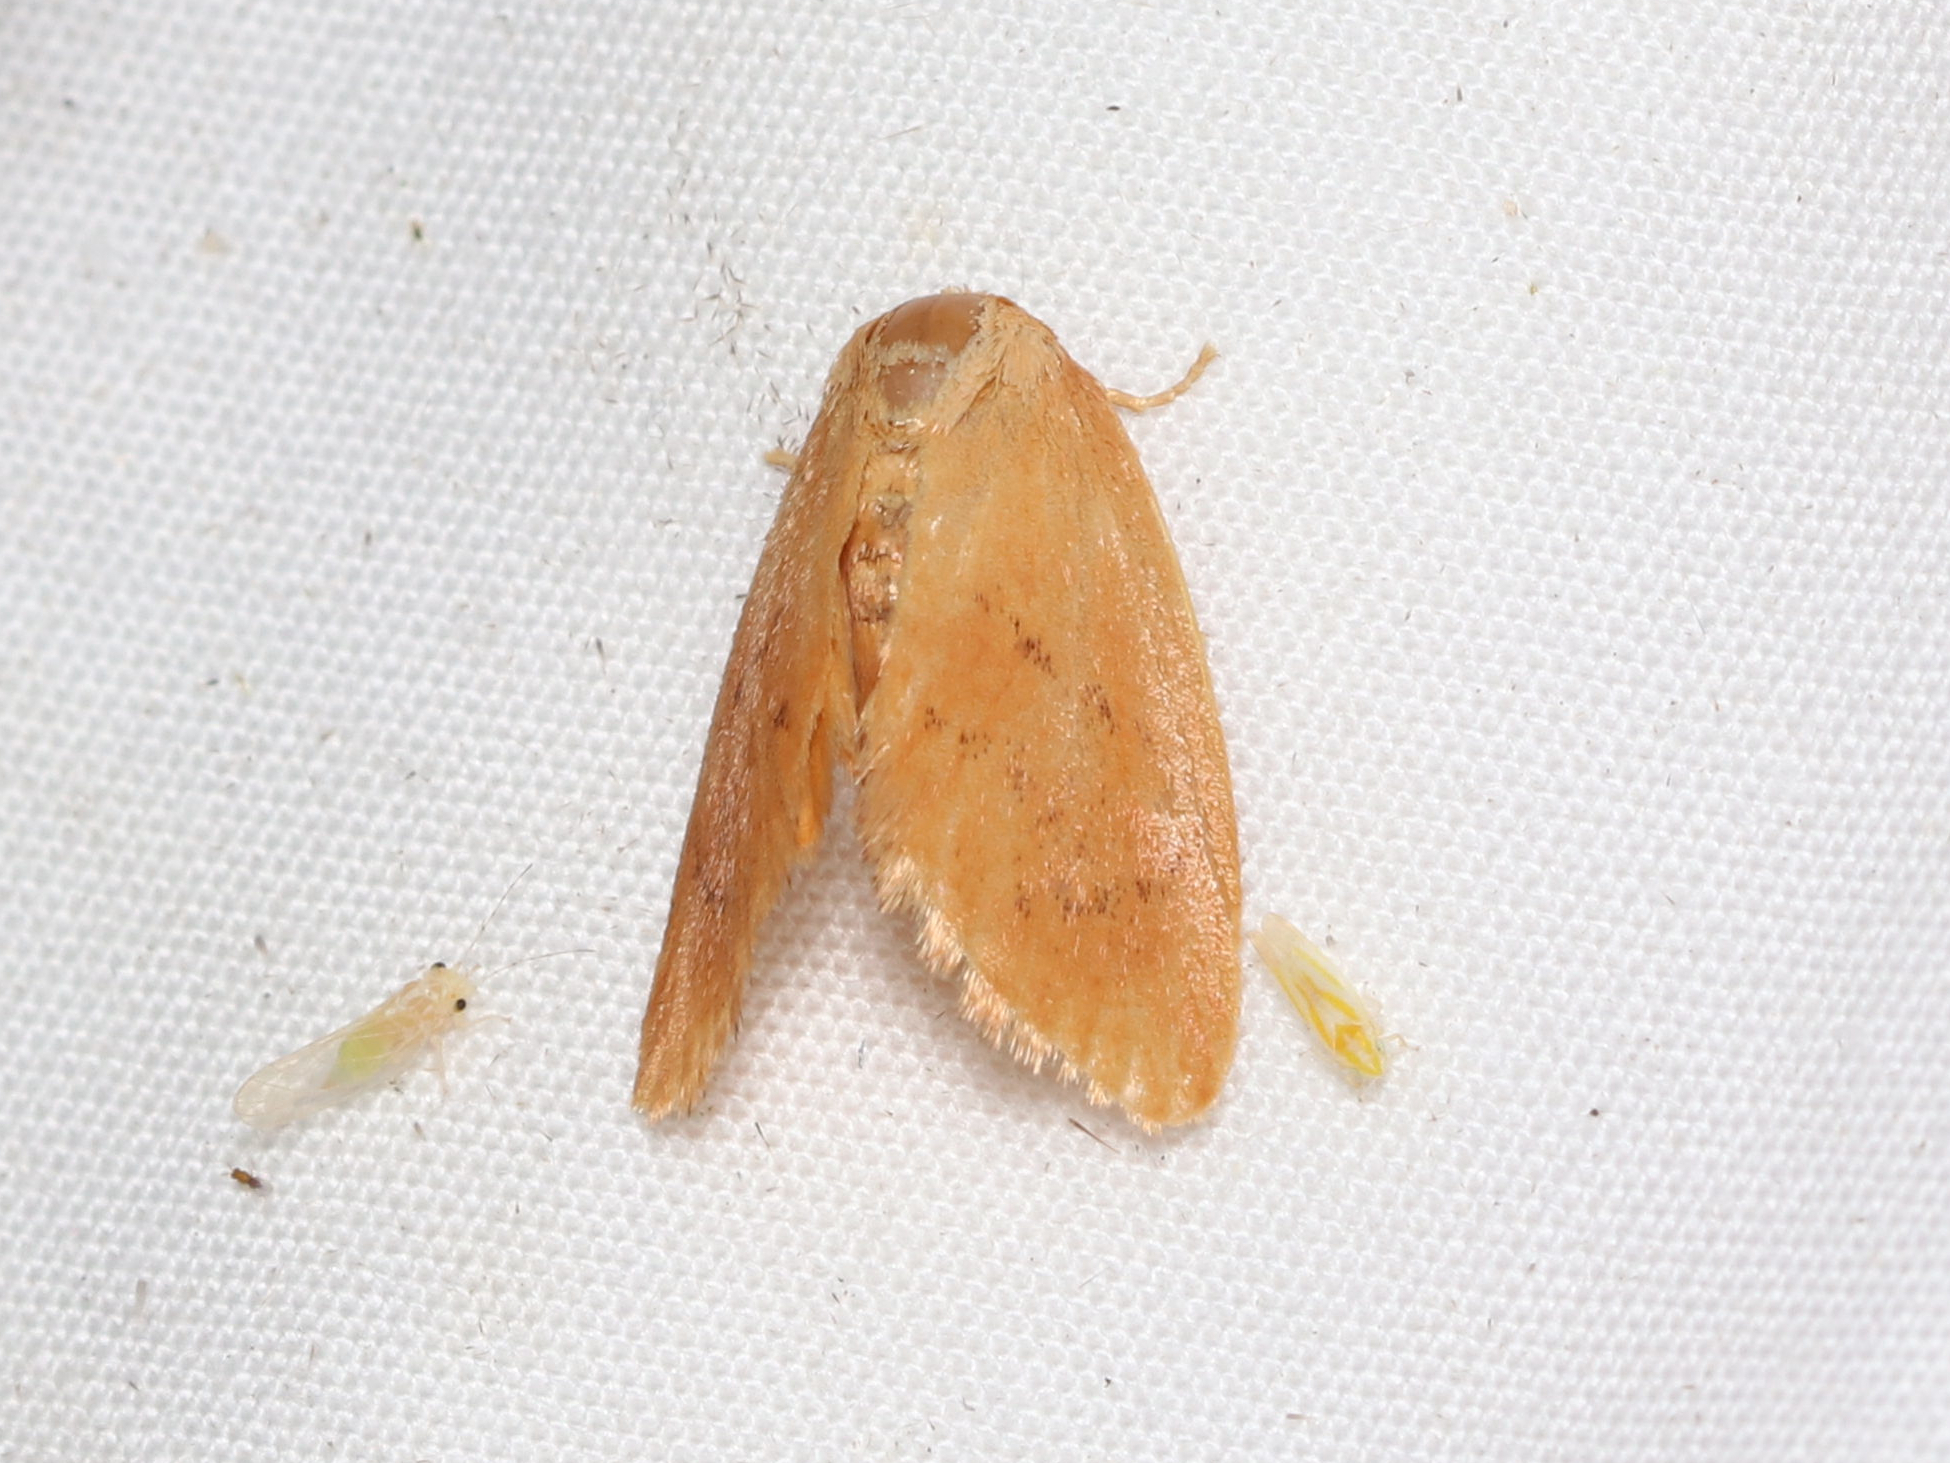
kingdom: Animalia
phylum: Arthropoda
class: Insecta
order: Lepidoptera
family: Limacodidae
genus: Tortricidia
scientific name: Tortricidia pallida
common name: Red-crossed button slug moth
